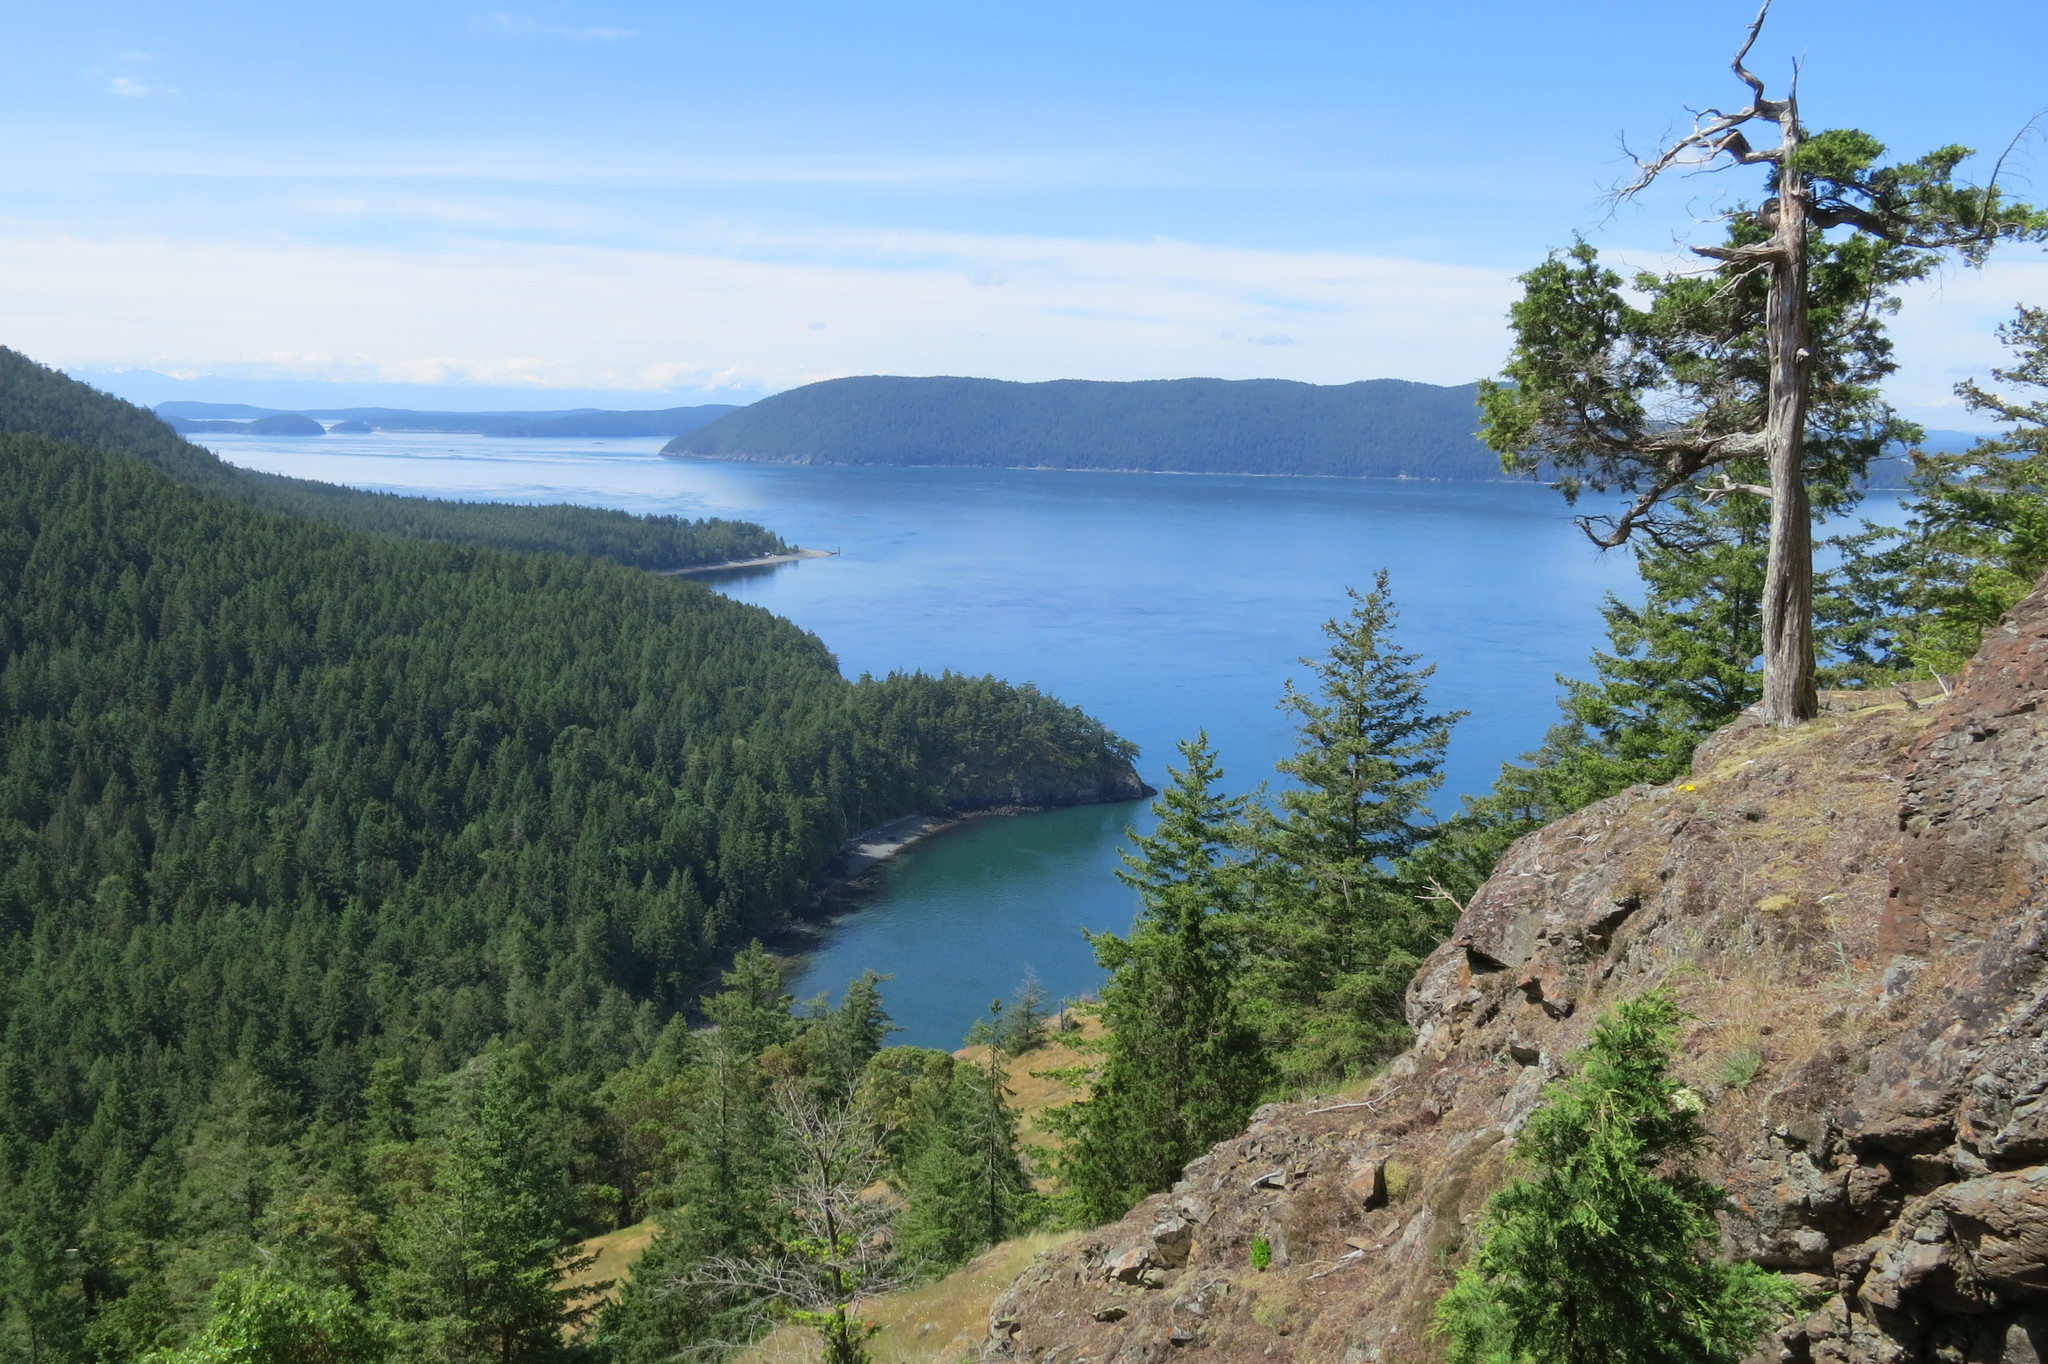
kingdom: Plantae
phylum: Tracheophyta
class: Pinopsida
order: Pinales
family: Cupressaceae
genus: Juniperus
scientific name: Juniperus scopulorum
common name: Rocky mountain juniper
